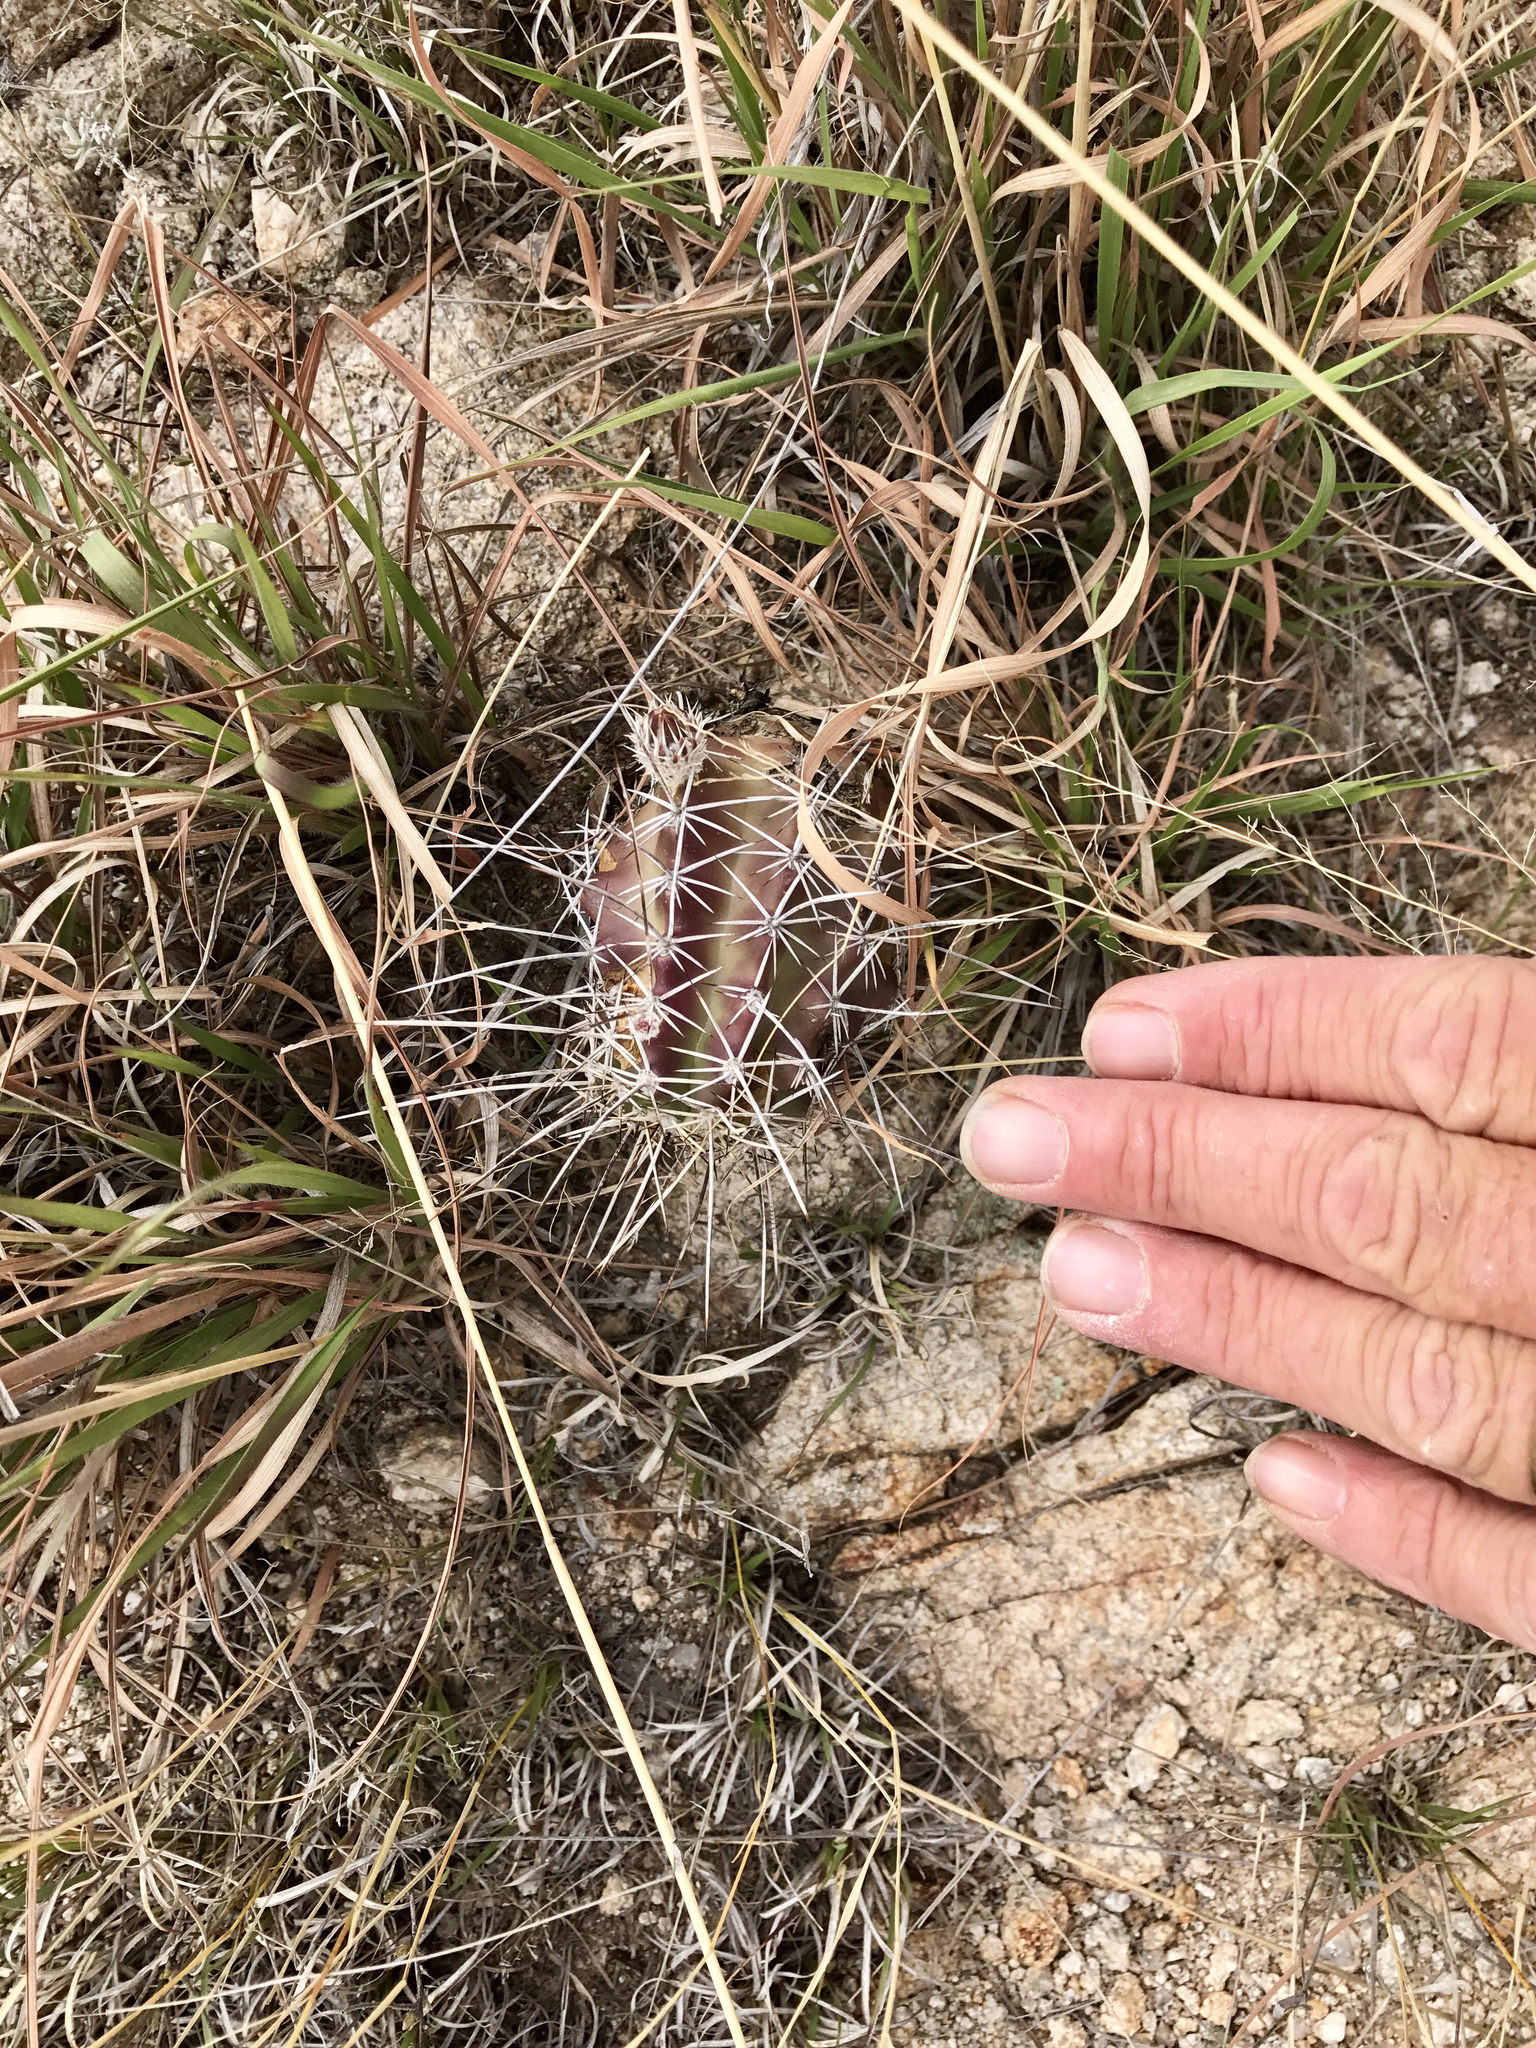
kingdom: Plantae
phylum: Tracheophyta
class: Magnoliopsida
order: Caryophyllales
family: Cactaceae
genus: Echinocereus
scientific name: Echinocereus fendleri
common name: Fendler's hedgehog cactus
